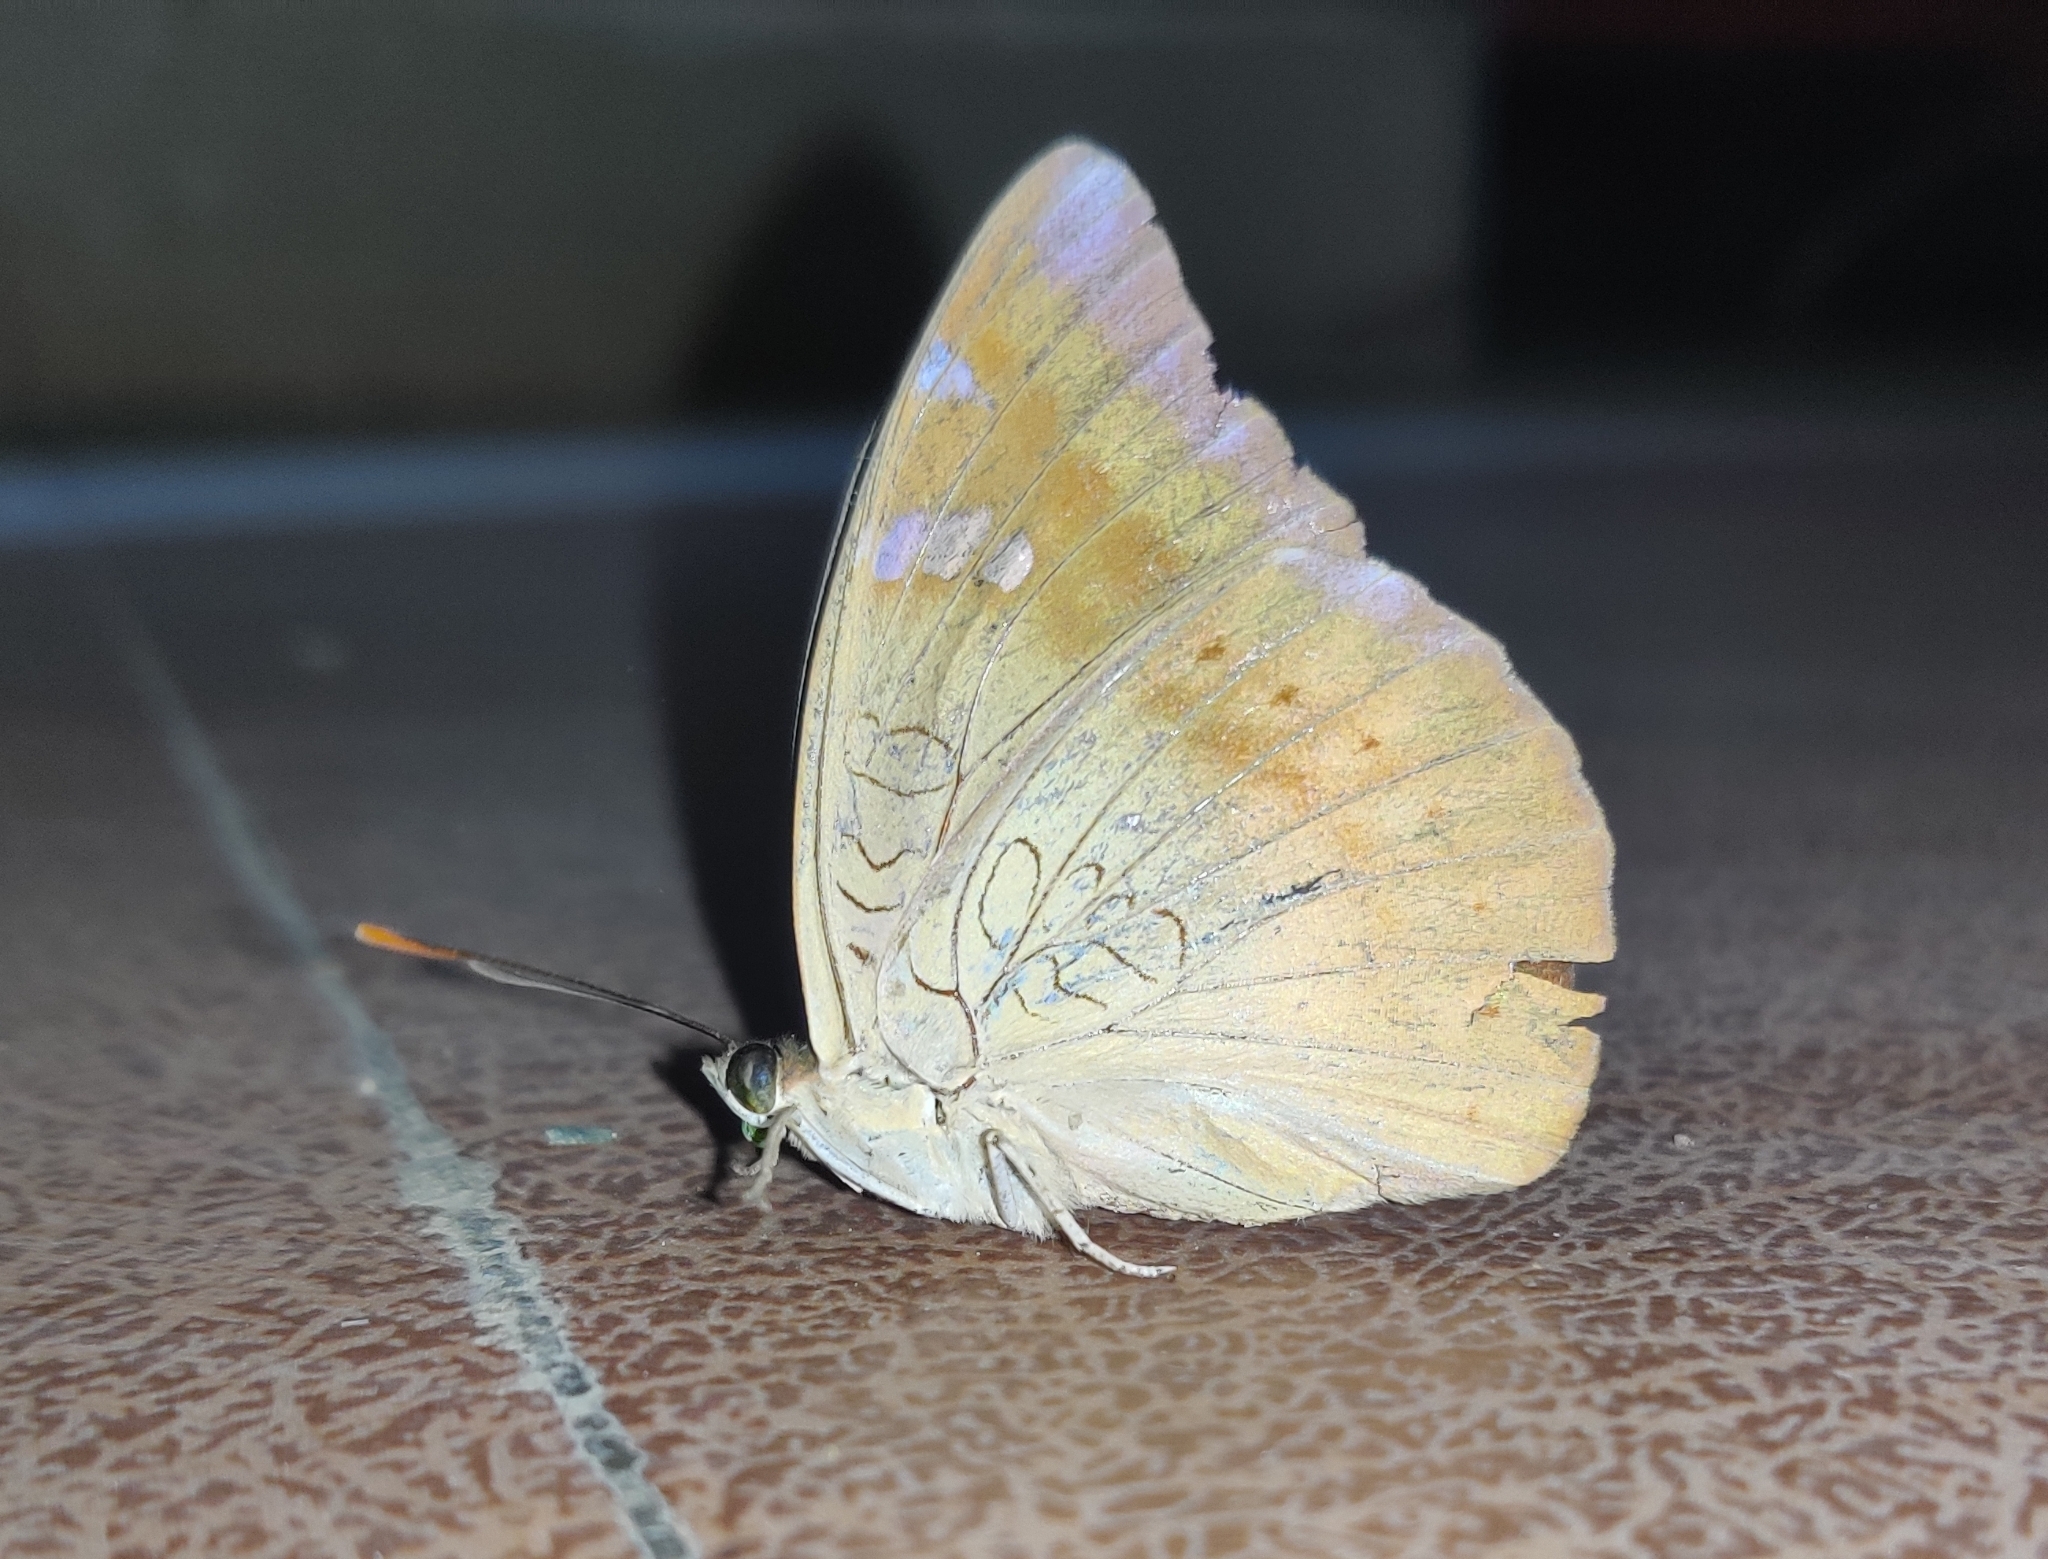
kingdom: Animalia
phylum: Arthropoda
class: Insecta
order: Lepidoptera
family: Nymphalidae
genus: Euthalia
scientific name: Euthalia aconthea
